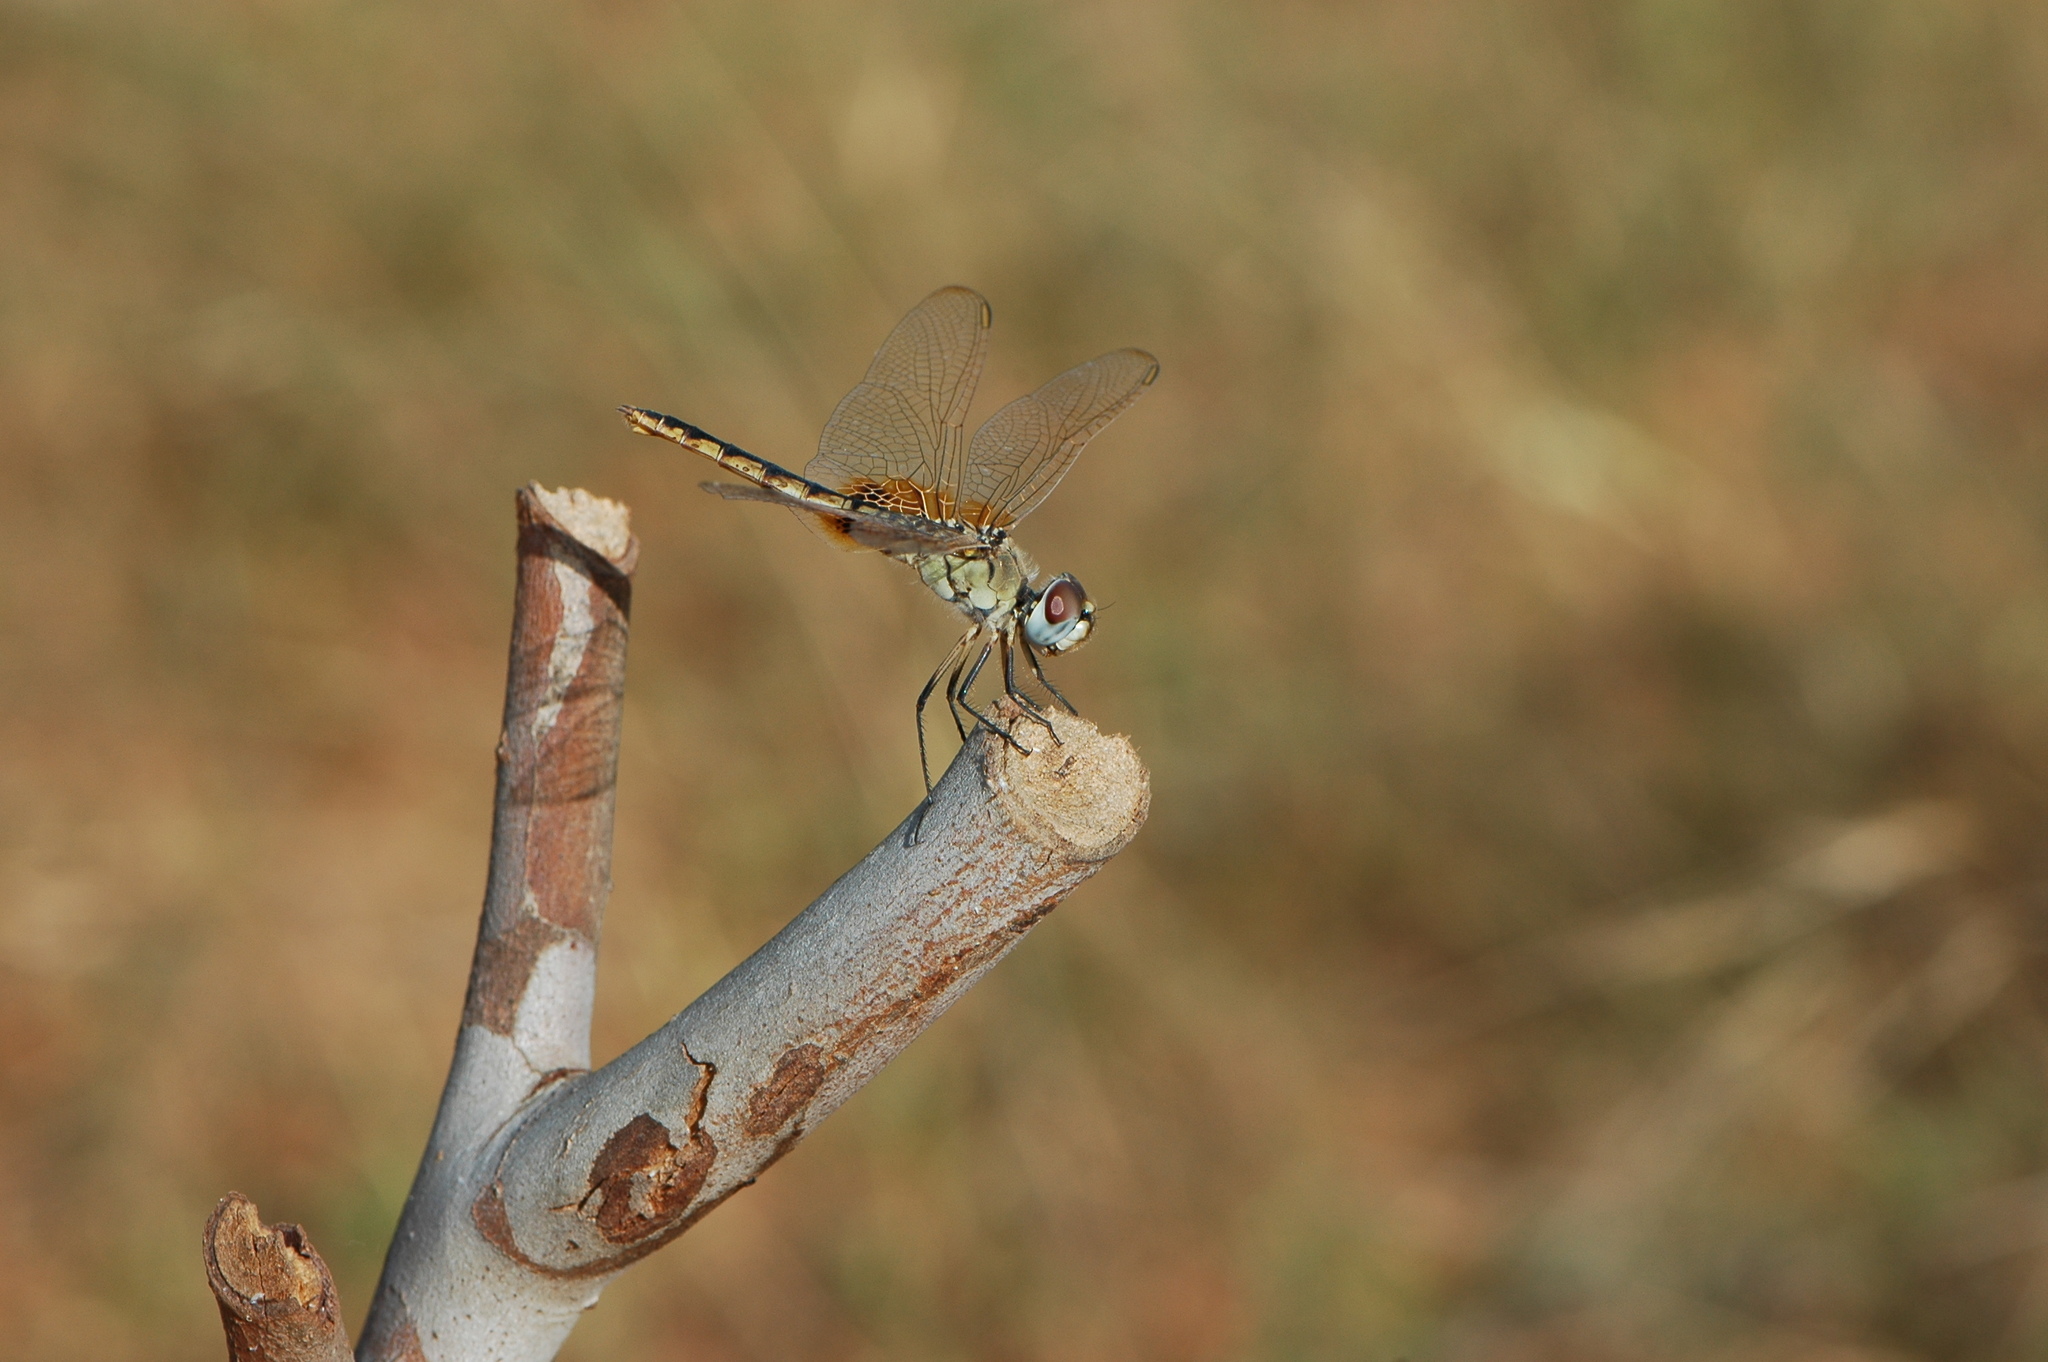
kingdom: Animalia
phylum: Arthropoda
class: Insecta
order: Odonata
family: Libellulidae
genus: Urothemis
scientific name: Urothemis edwardsii
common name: Blue basker
